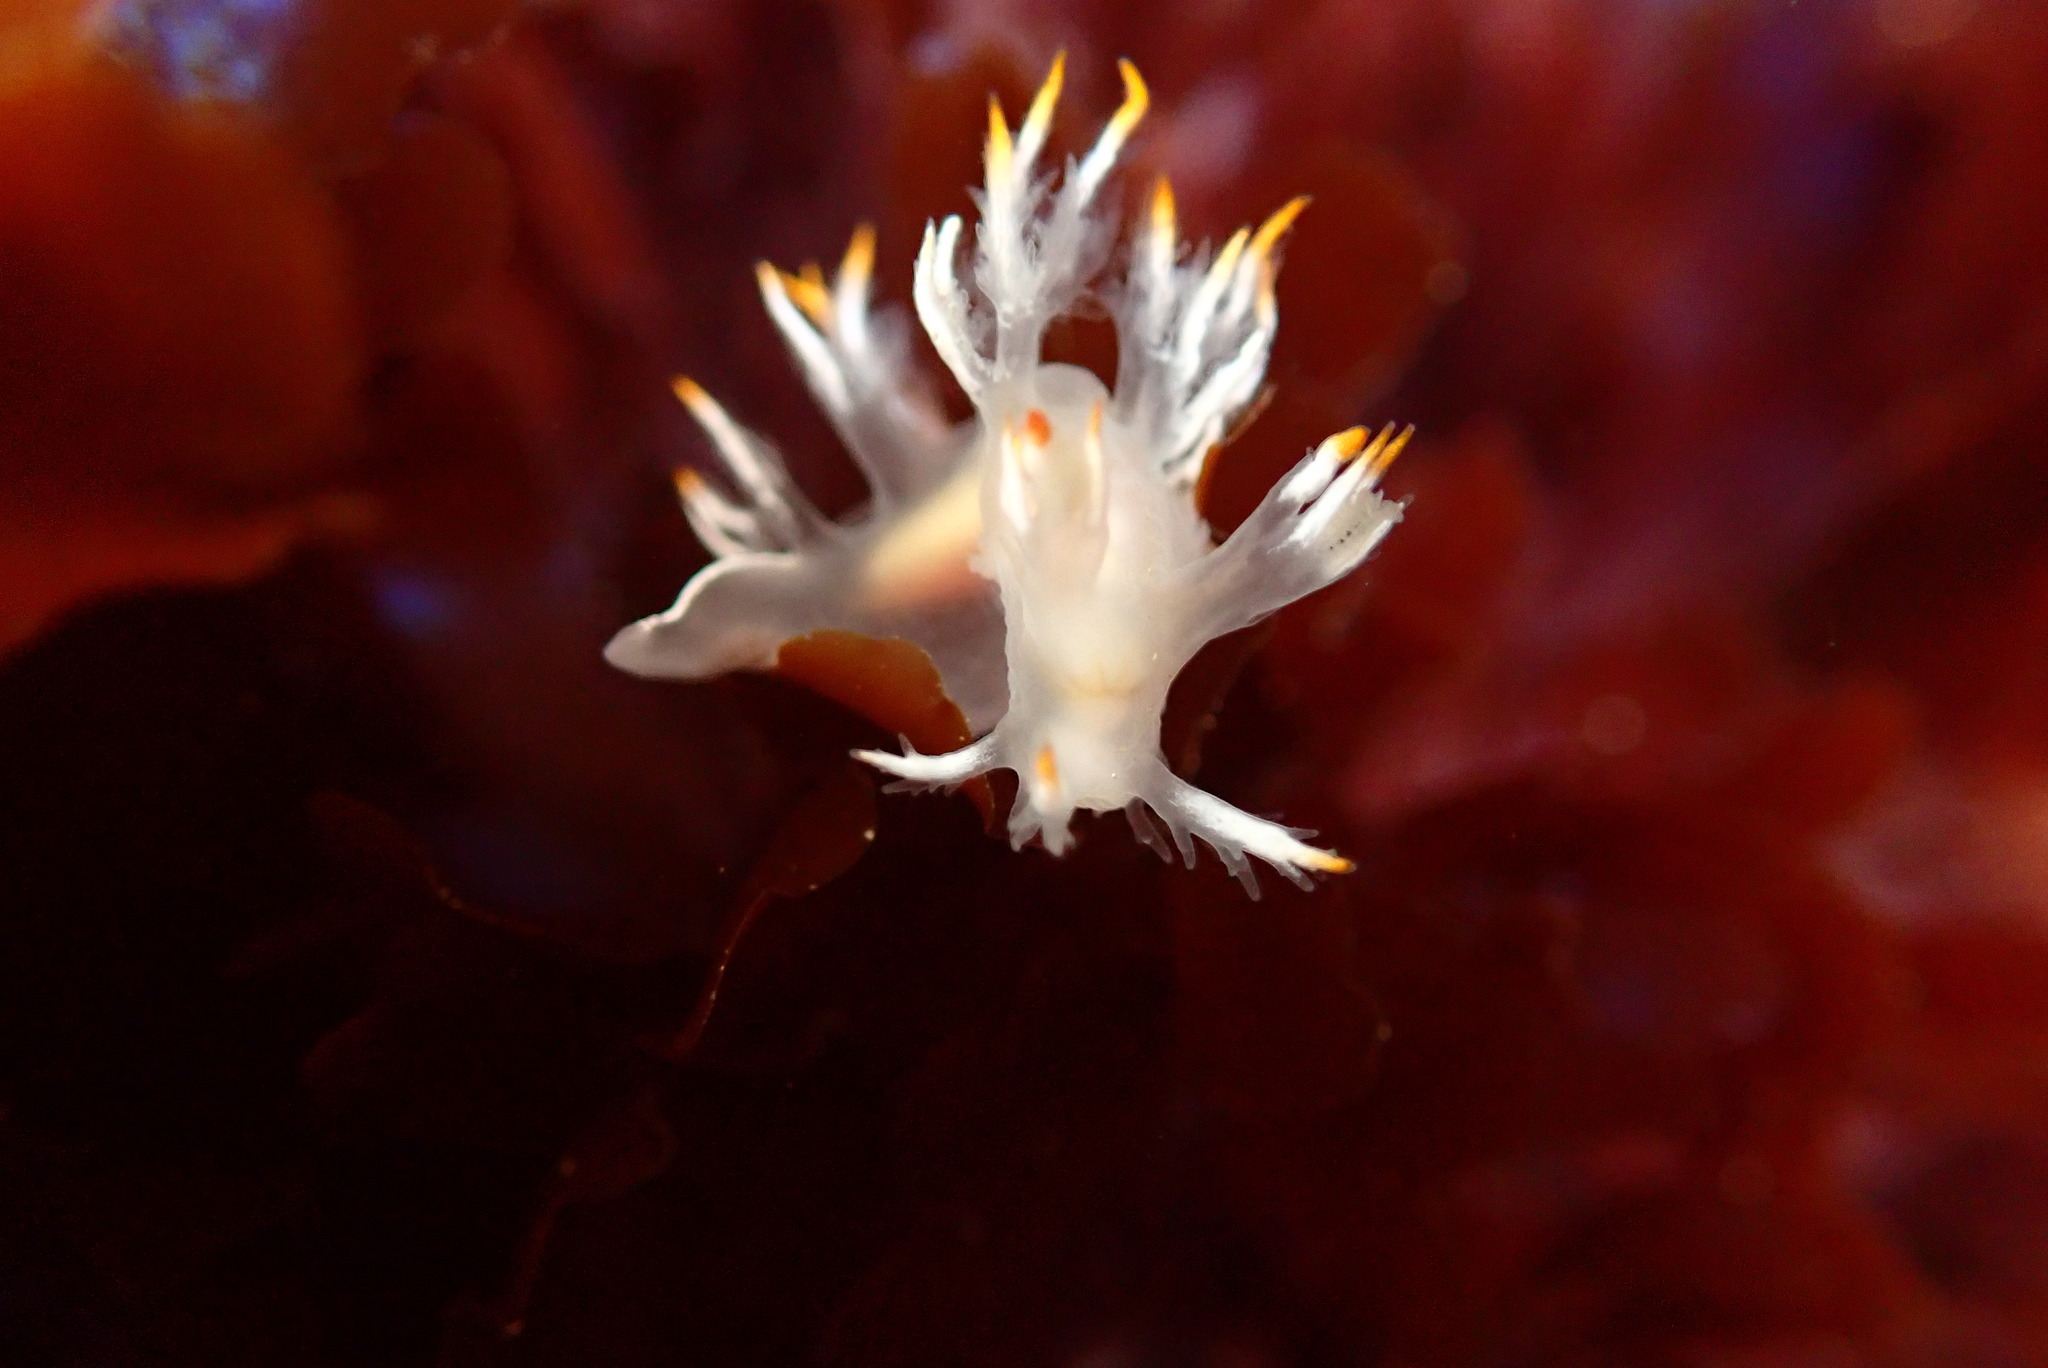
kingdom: Animalia
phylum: Mollusca
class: Gastropoda
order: Nudibranchia
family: Dendronotidae
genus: Dendronotus
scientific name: Dendronotus albus
